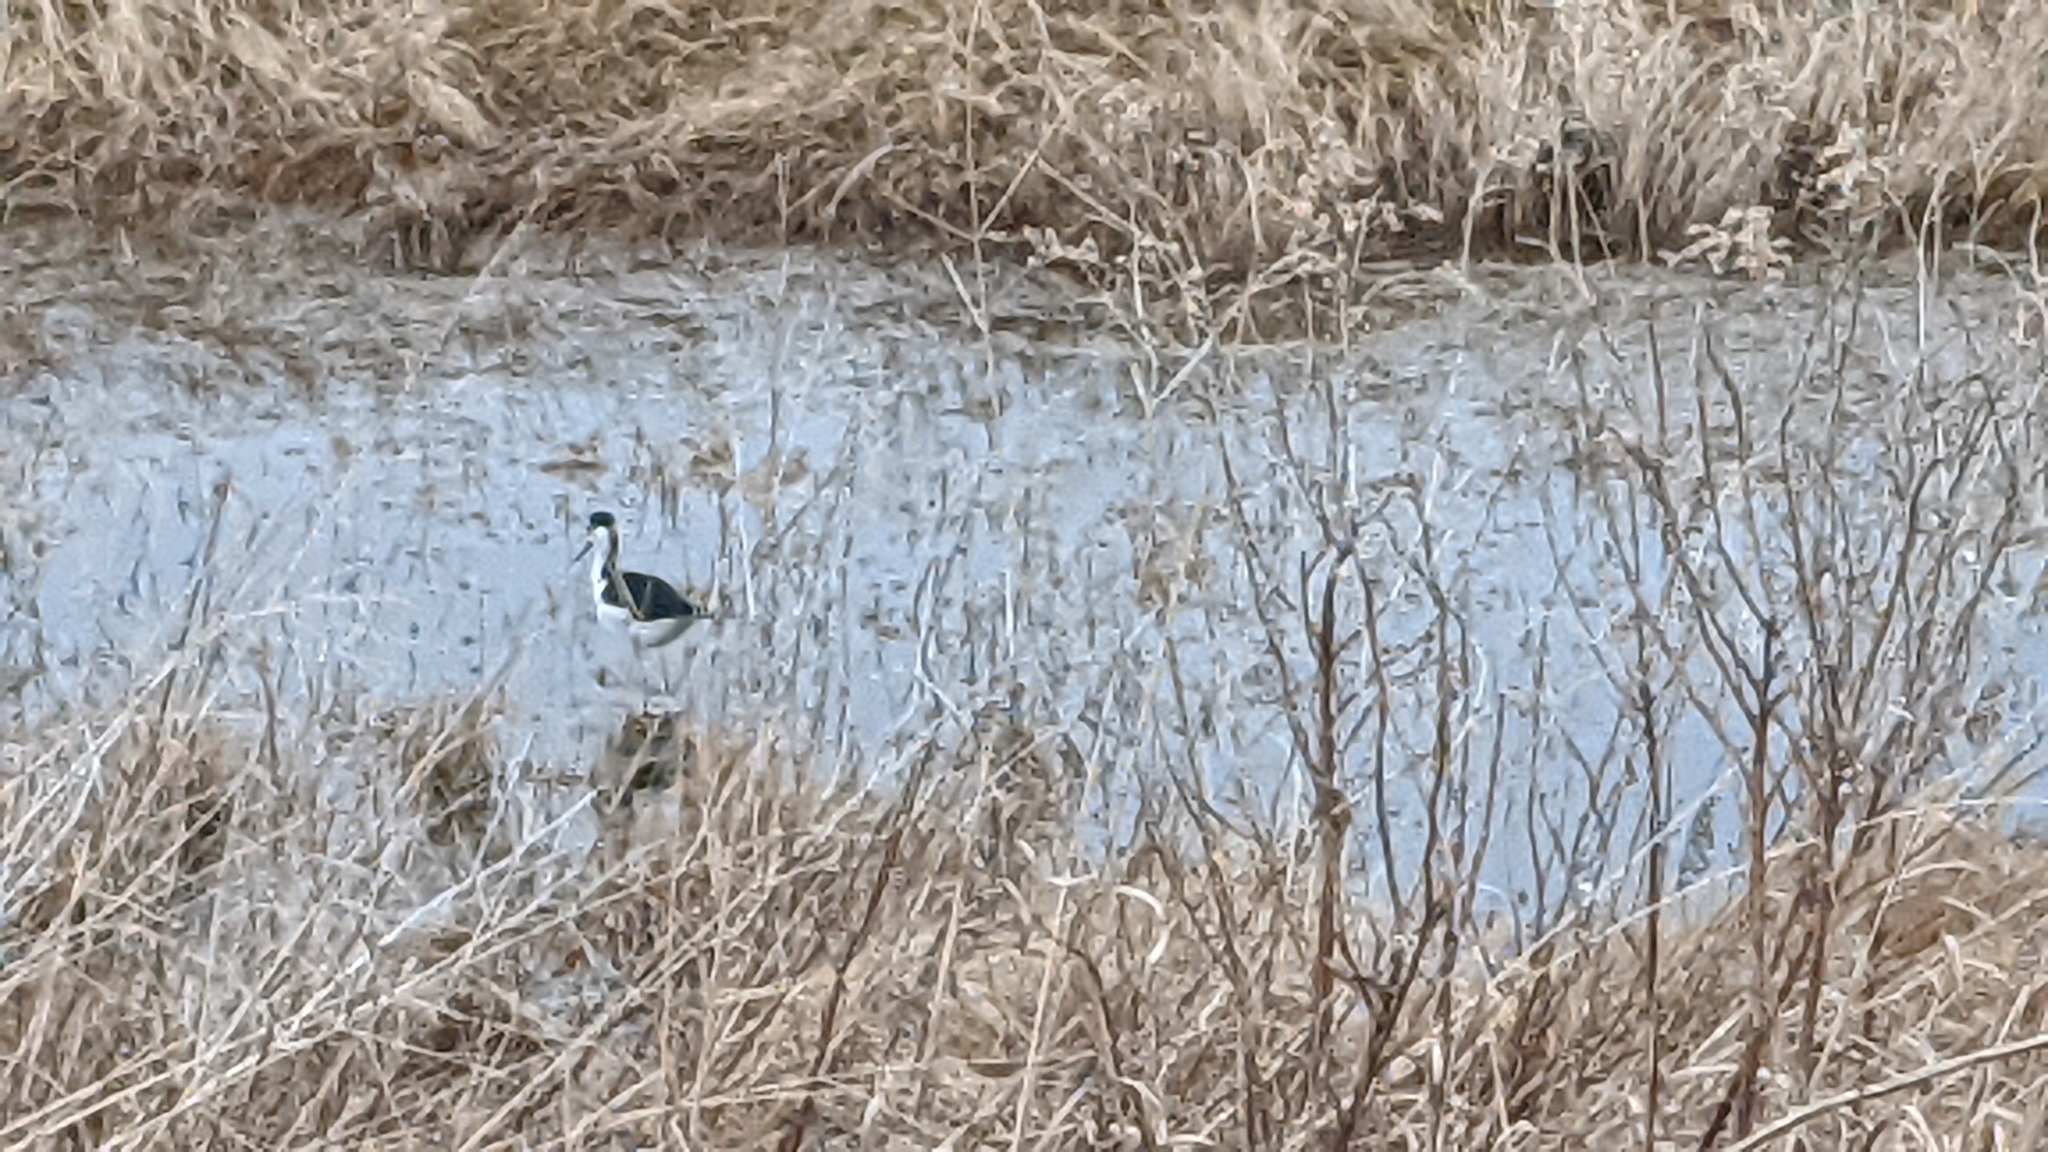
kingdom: Animalia
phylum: Chordata
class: Aves
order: Charadriiformes
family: Recurvirostridae
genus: Himantopus
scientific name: Himantopus mexicanus
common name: Black-necked stilt
